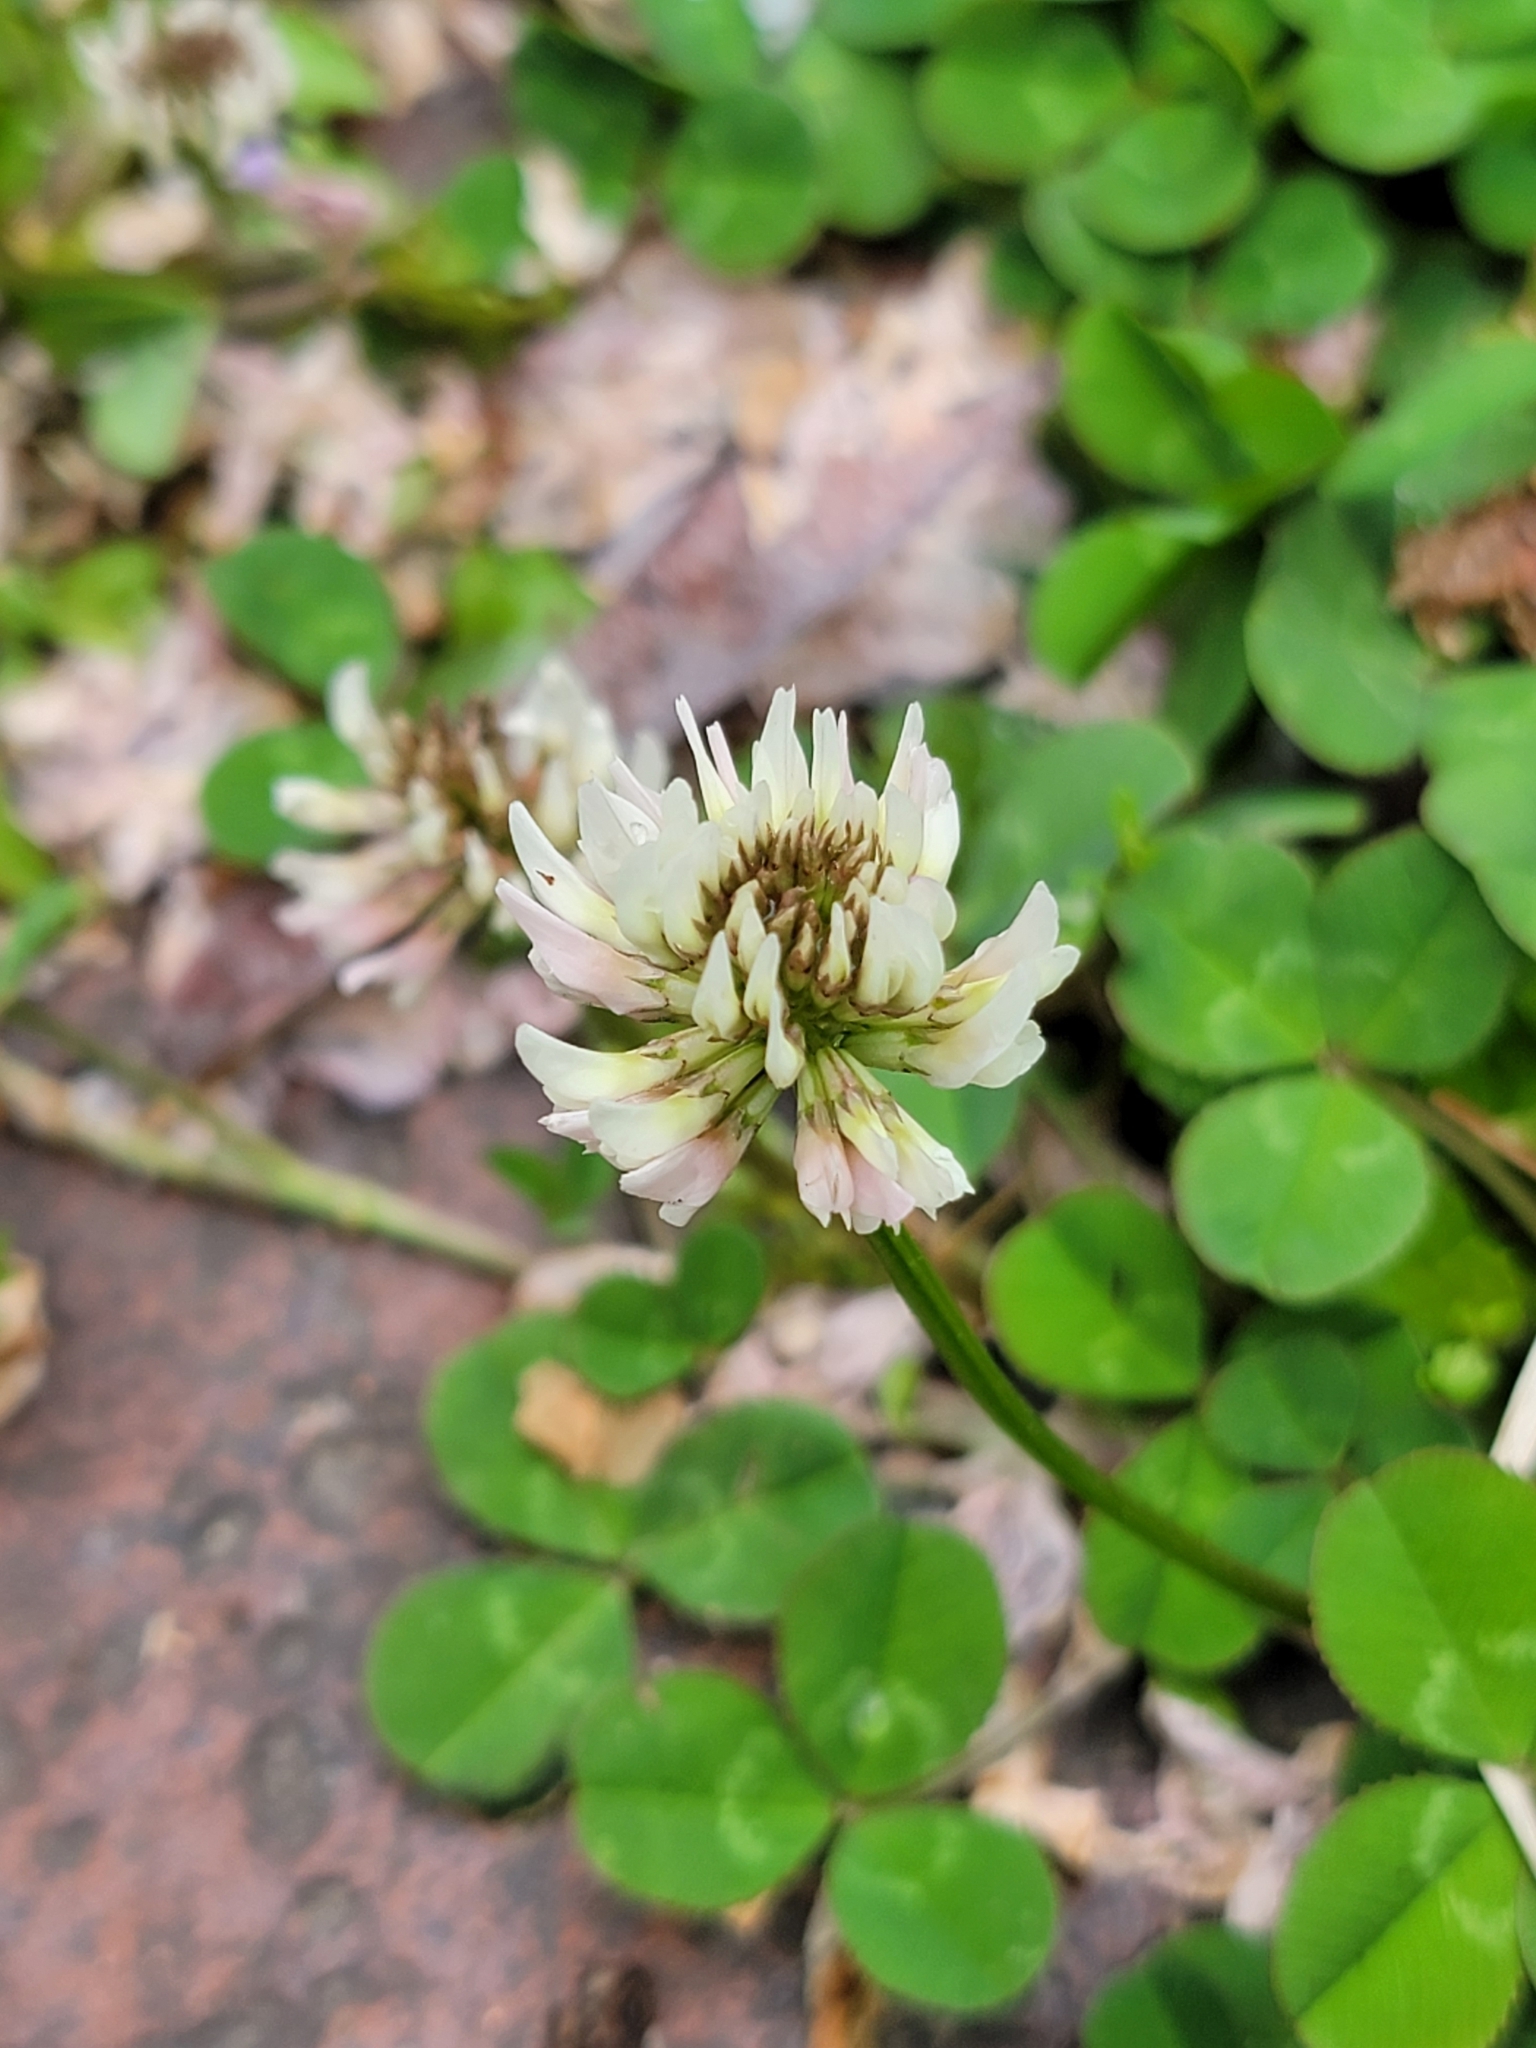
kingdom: Plantae
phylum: Tracheophyta
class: Magnoliopsida
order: Fabales
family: Fabaceae
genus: Trifolium
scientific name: Trifolium repens
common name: White clover
